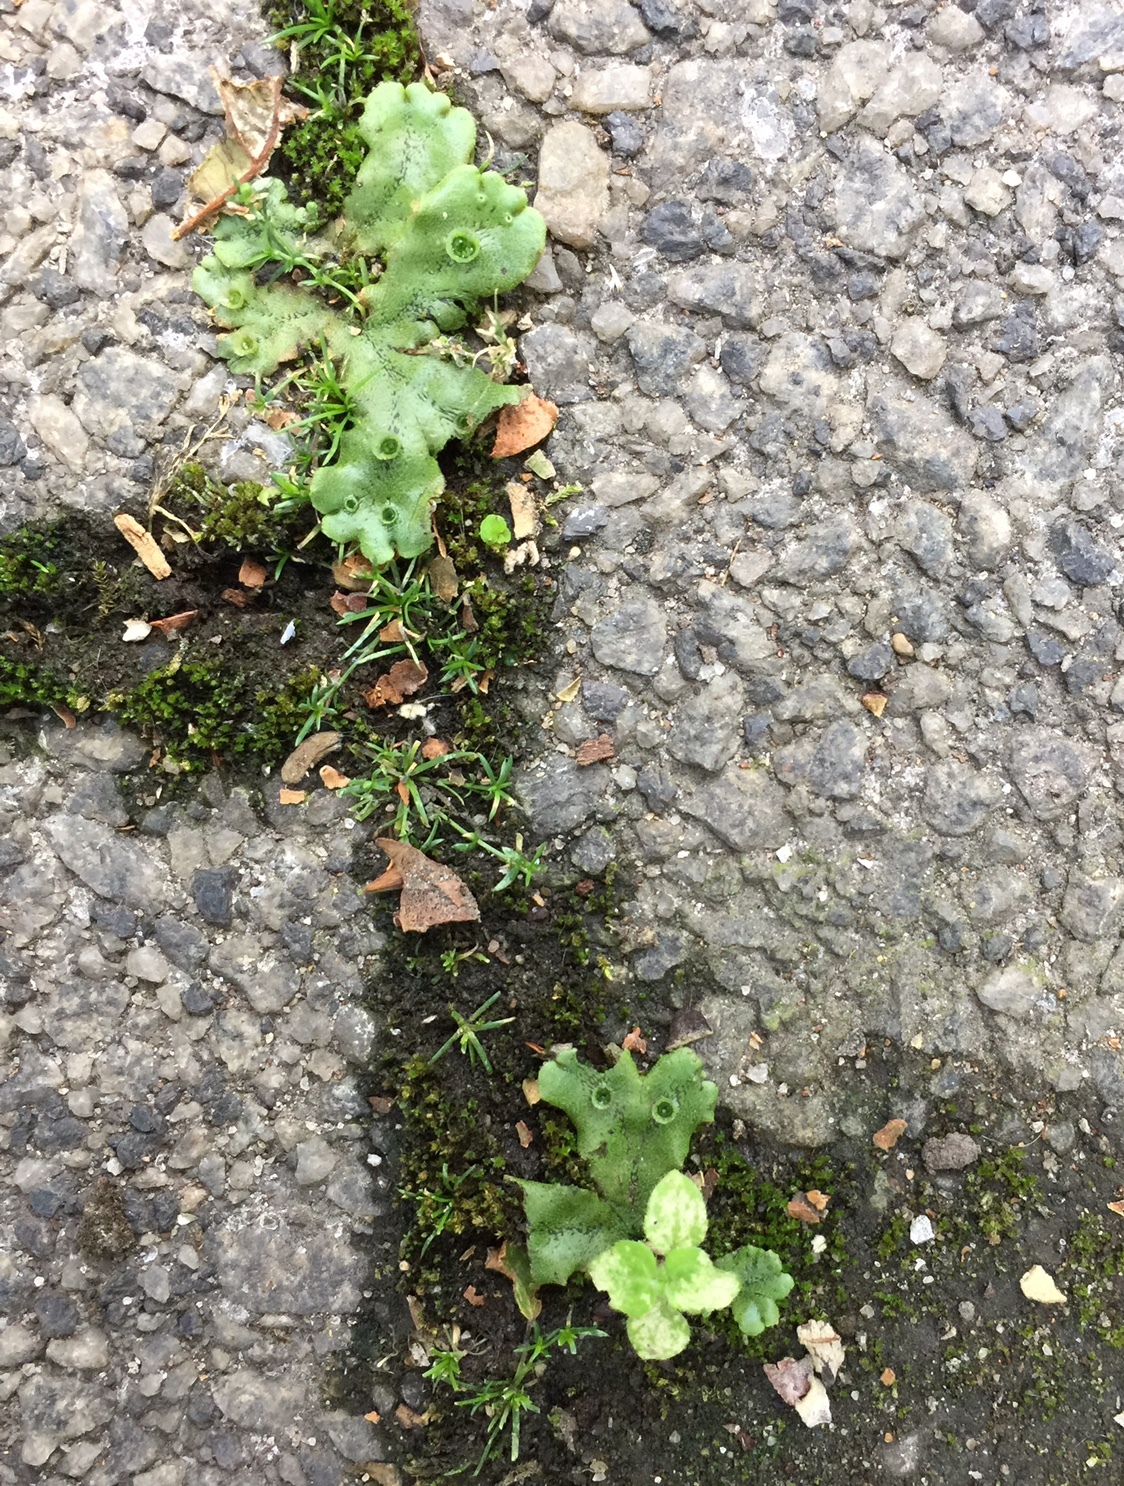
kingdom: Plantae
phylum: Marchantiophyta
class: Marchantiopsida
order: Marchantiales
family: Marchantiaceae
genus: Marchantia
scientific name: Marchantia polymorpha
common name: Common liverwort
